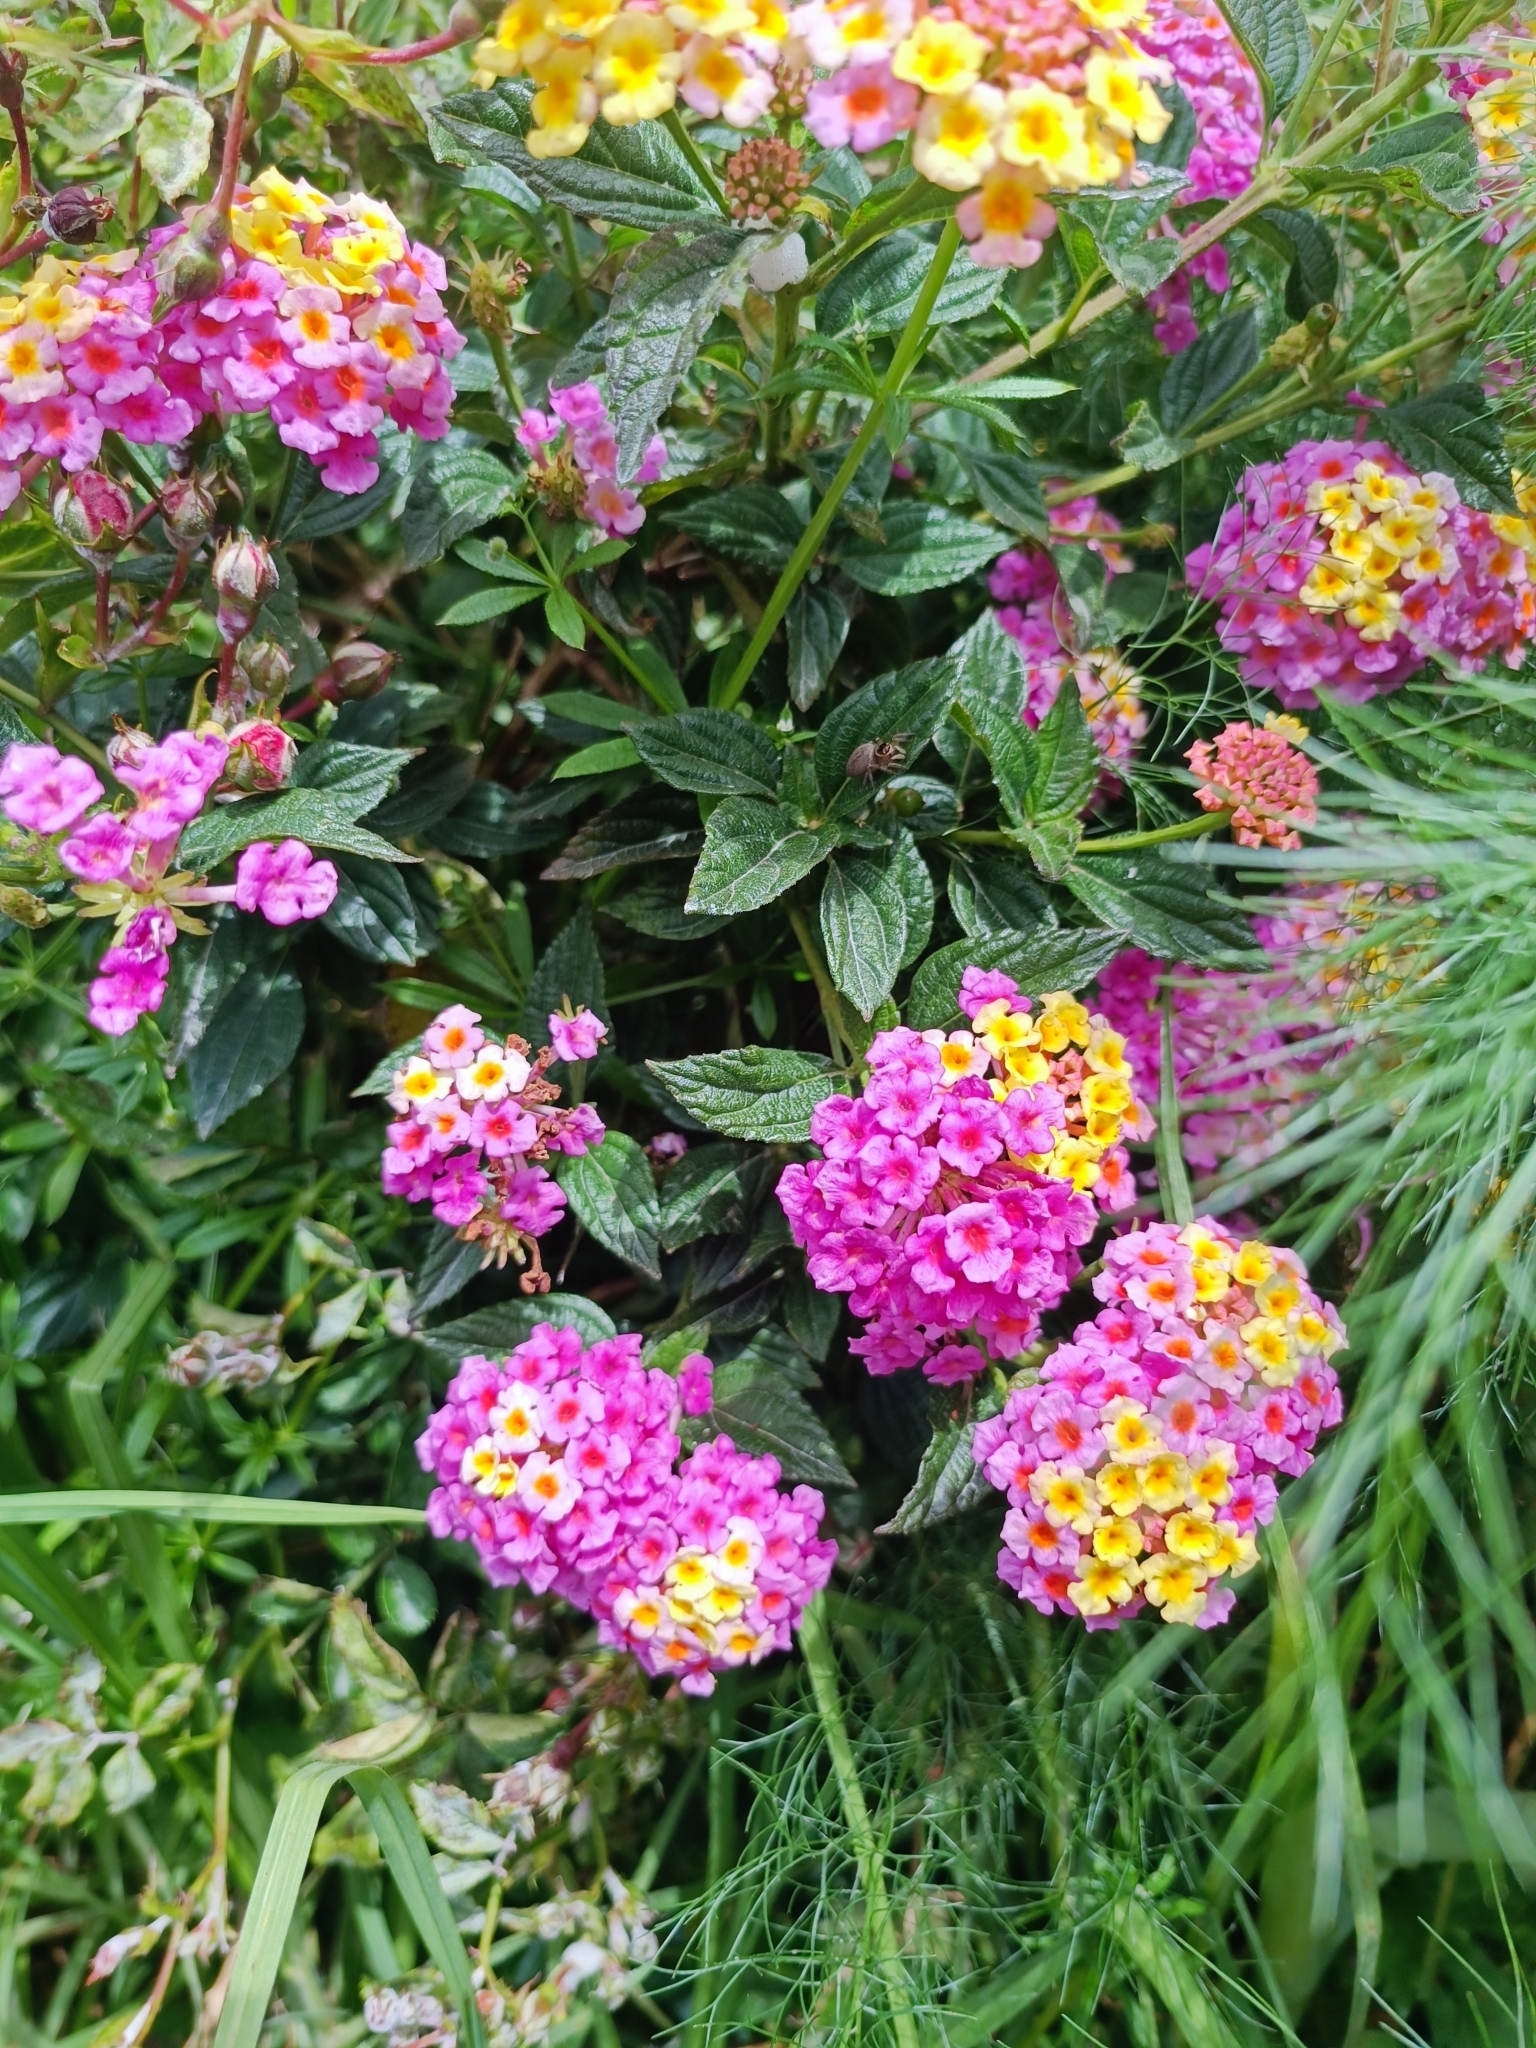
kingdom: Plantae
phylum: Tracheophyta
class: Magnoliopsida
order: Lamiales
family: Verbenaceae
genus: Lantana
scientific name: Lantana camara
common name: Lantana
